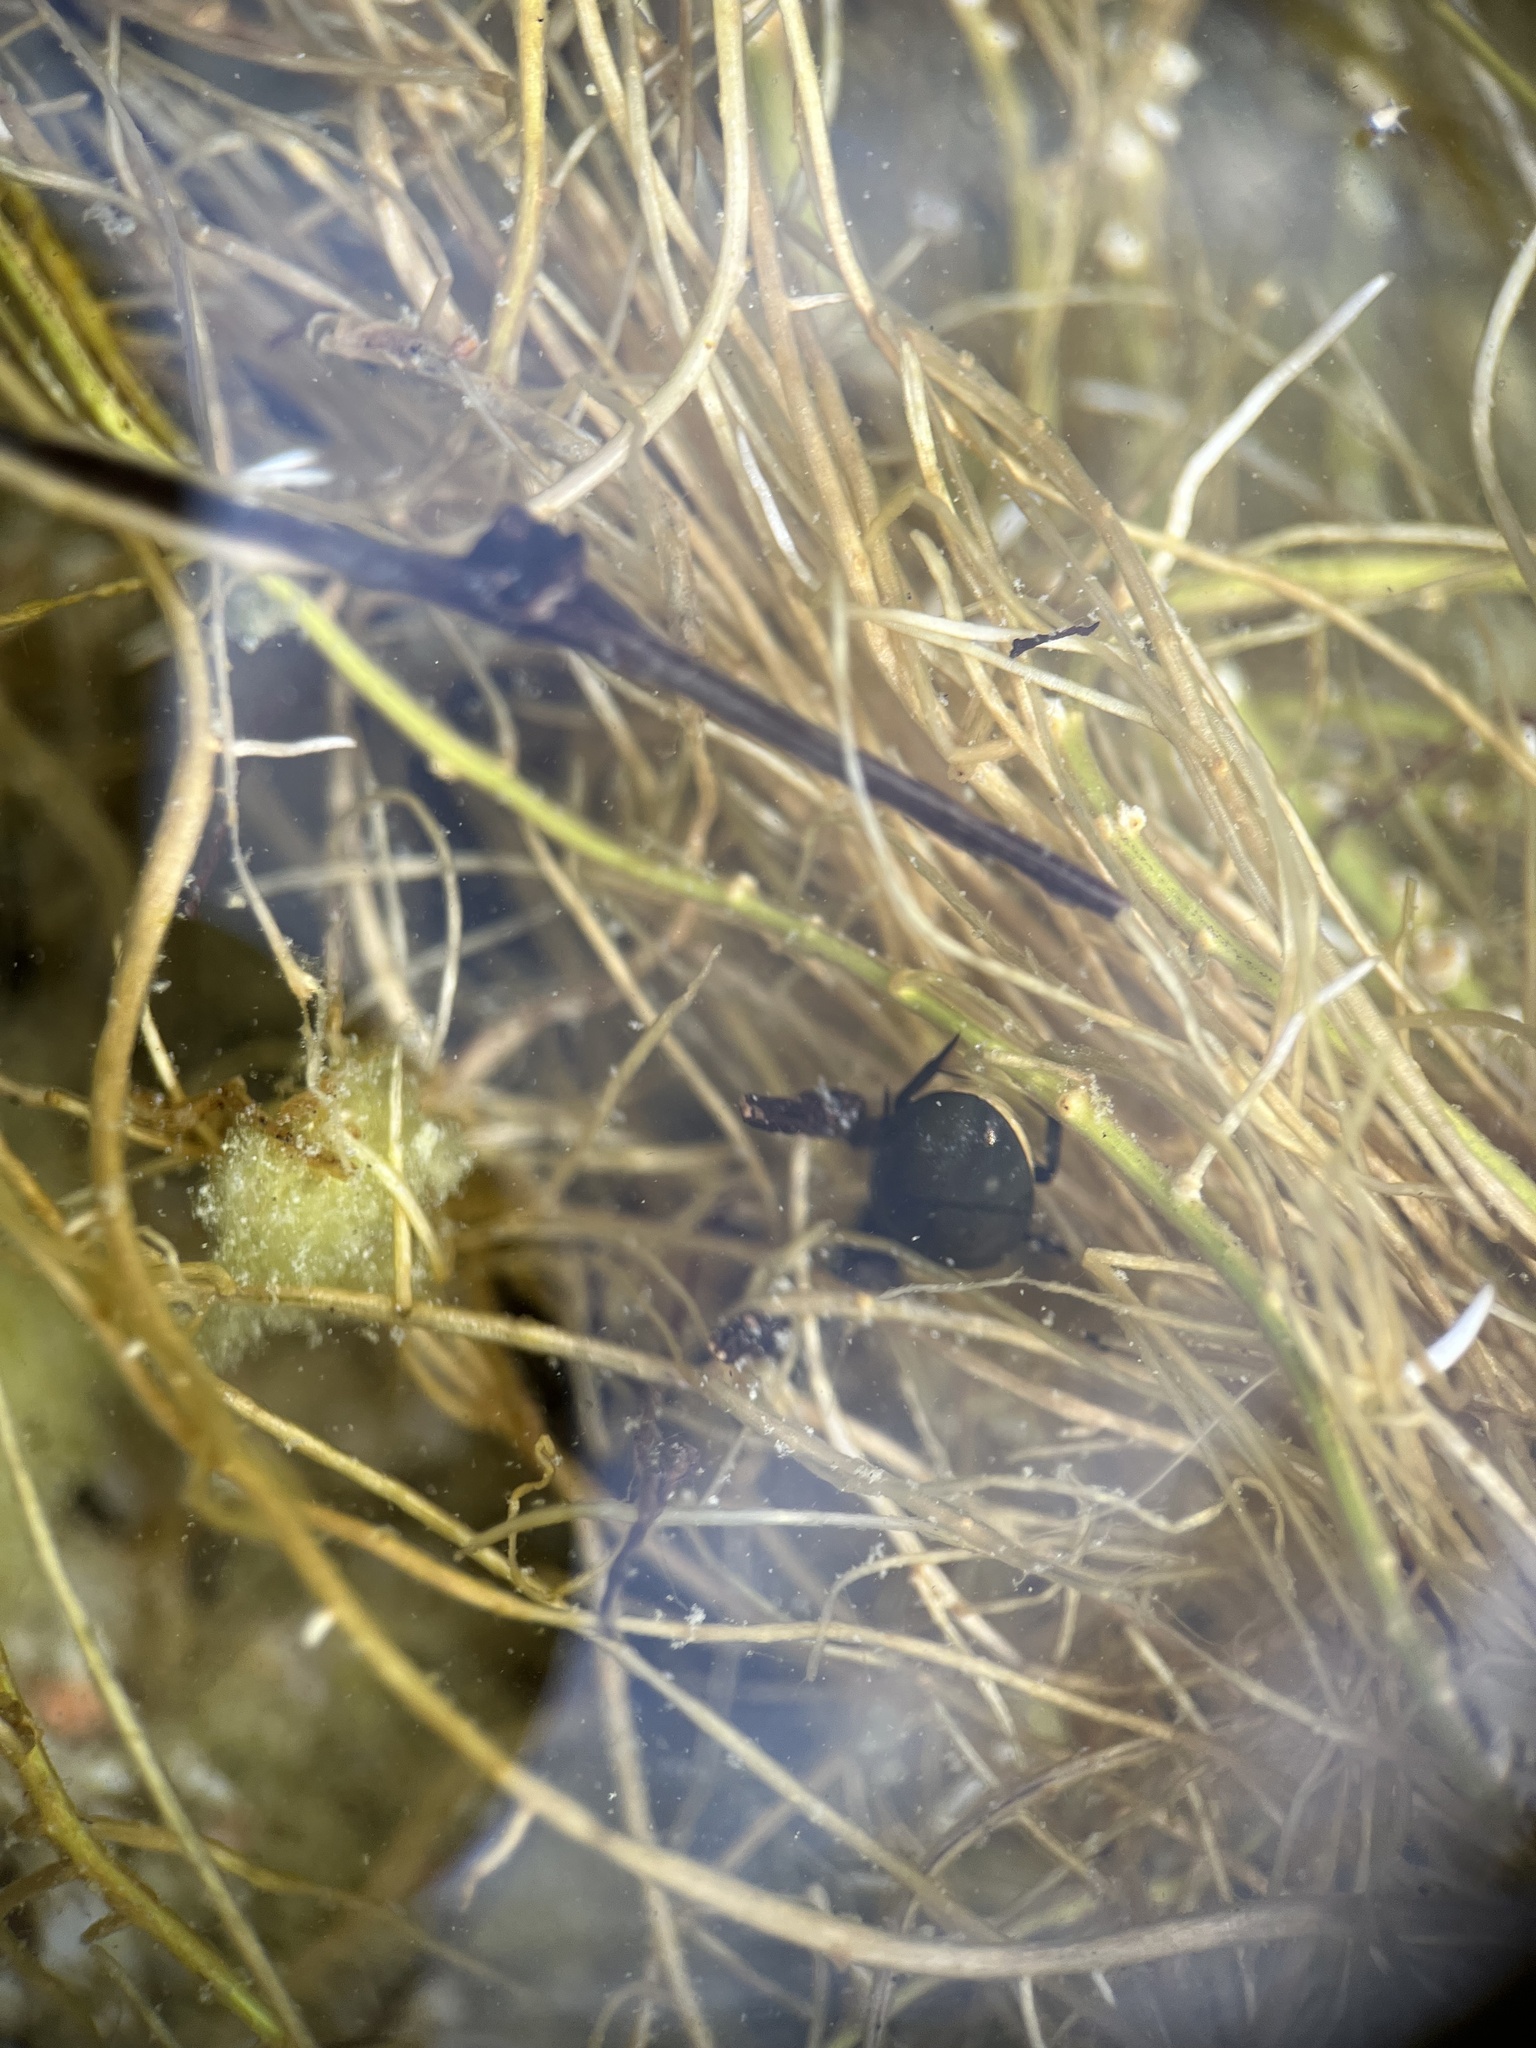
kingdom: Animalia
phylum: Arthropoda
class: Insecta
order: Coleoptera
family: Hydrophilidae
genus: Tropisternus
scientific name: Tropisternus
